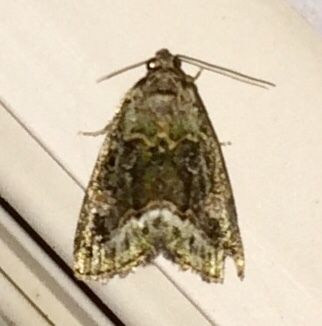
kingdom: Animalia
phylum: Arthropoda
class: Insecta
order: Lepidoptera
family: Noctuidae
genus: Lithacodia
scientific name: Lithacodia musta
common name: Small mossy glyph
